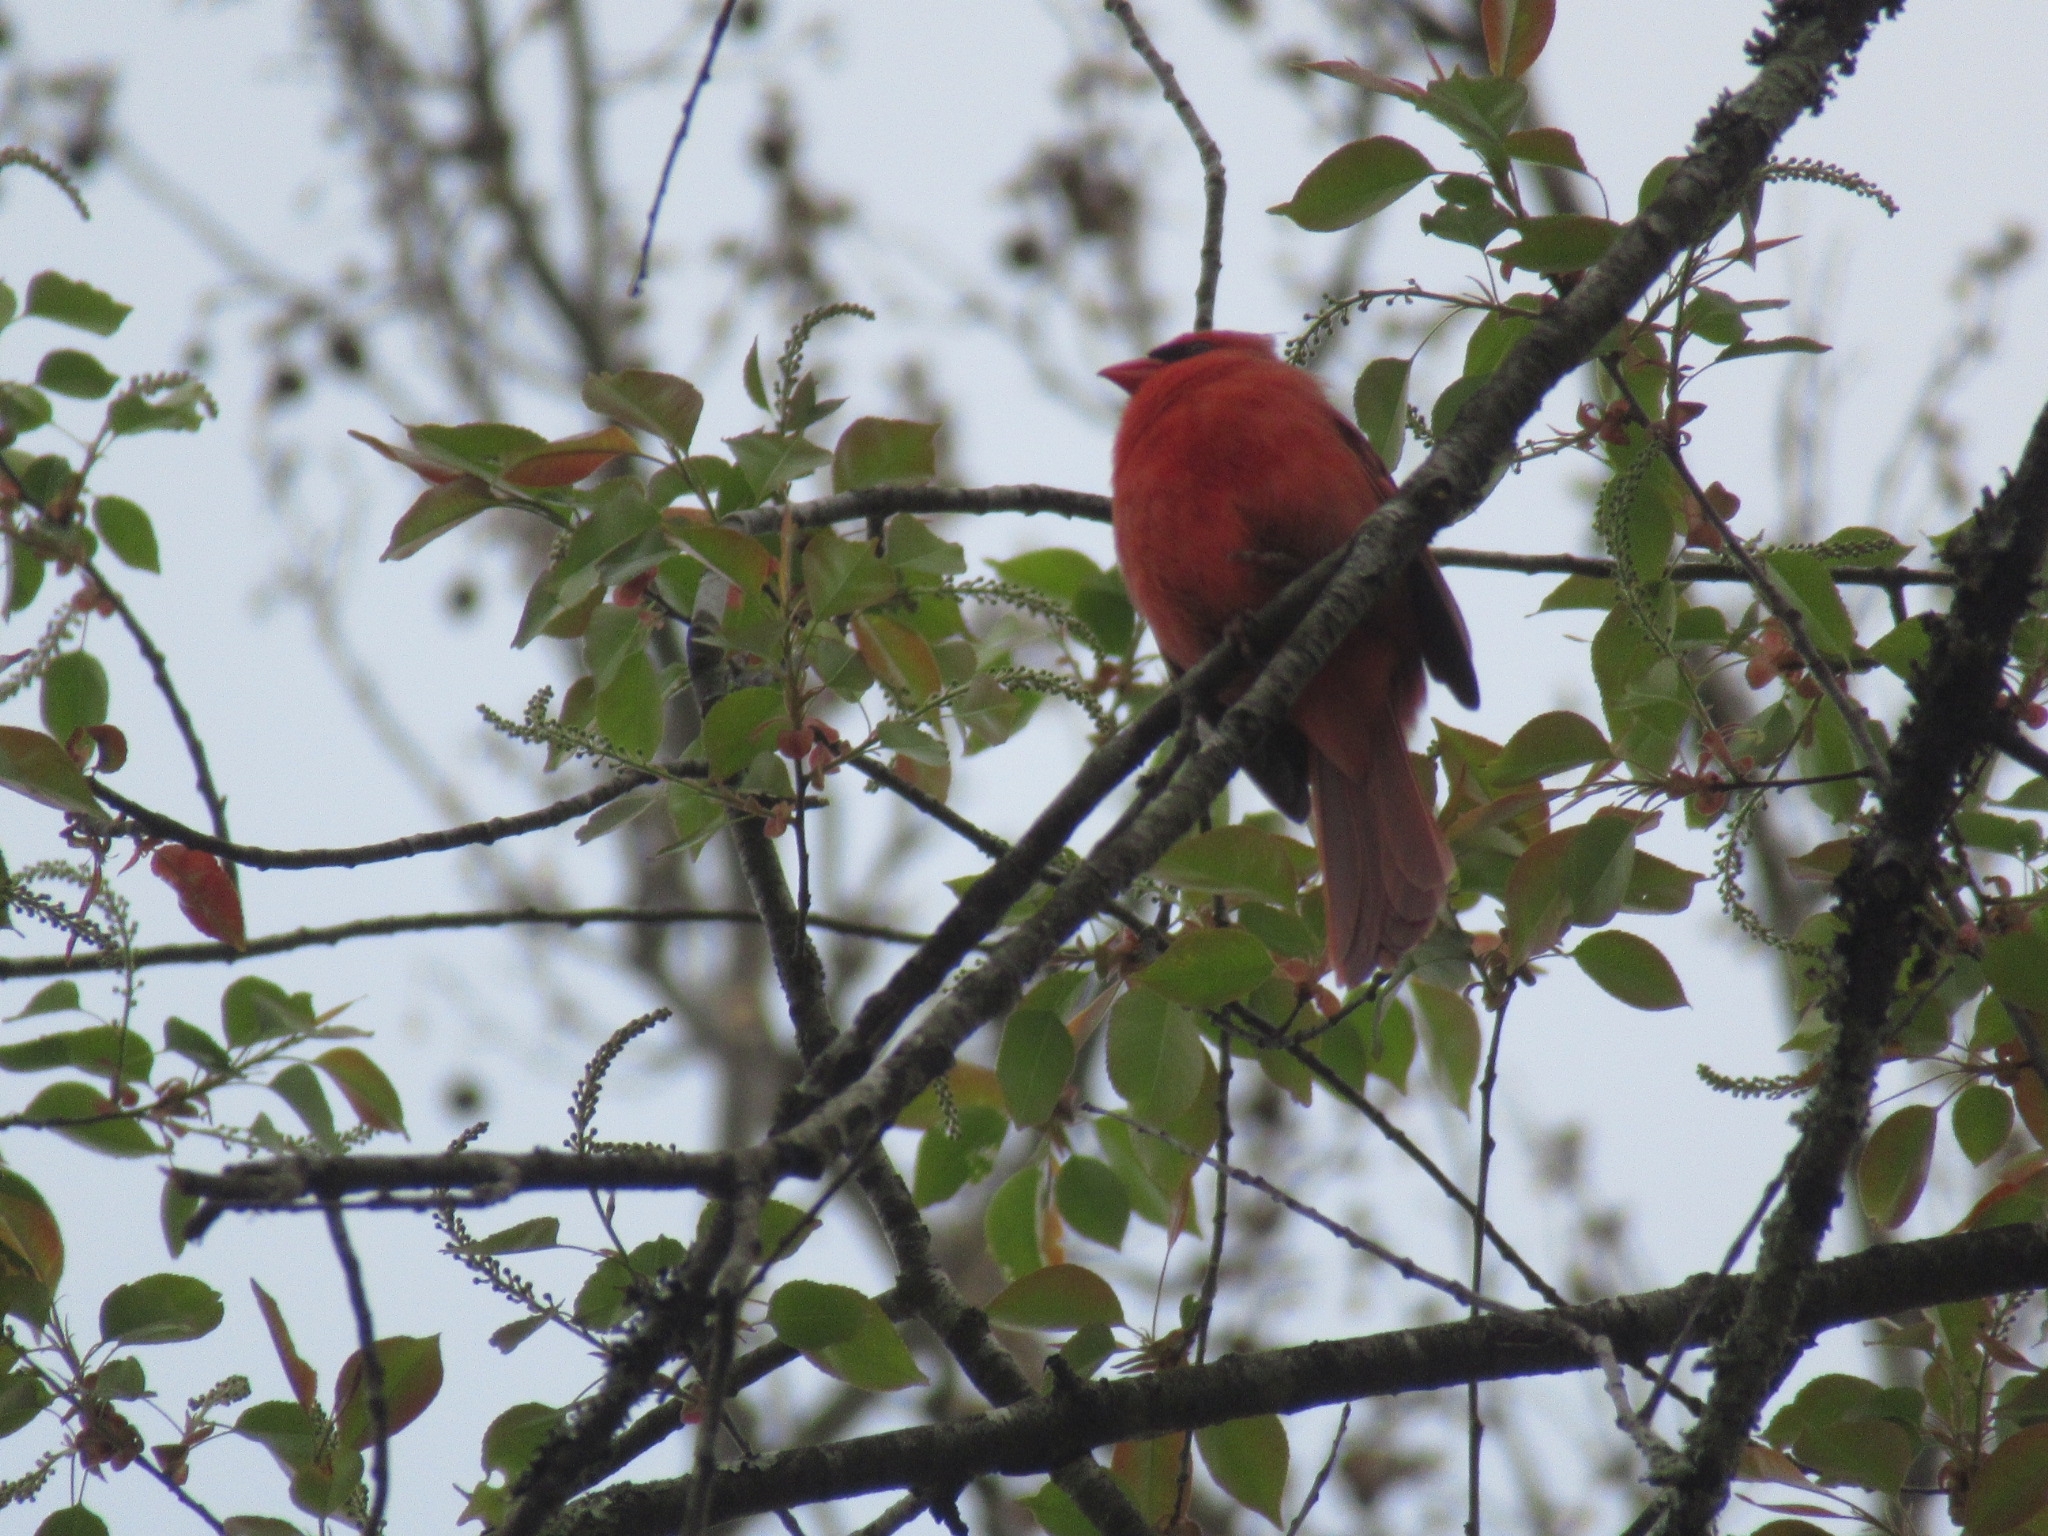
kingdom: Animalia
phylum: Chordata
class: Aves
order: Passeriformes
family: Cardinalidae
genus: Cardinalis
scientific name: Cardinalis cardinalis
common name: Northern cardinal
